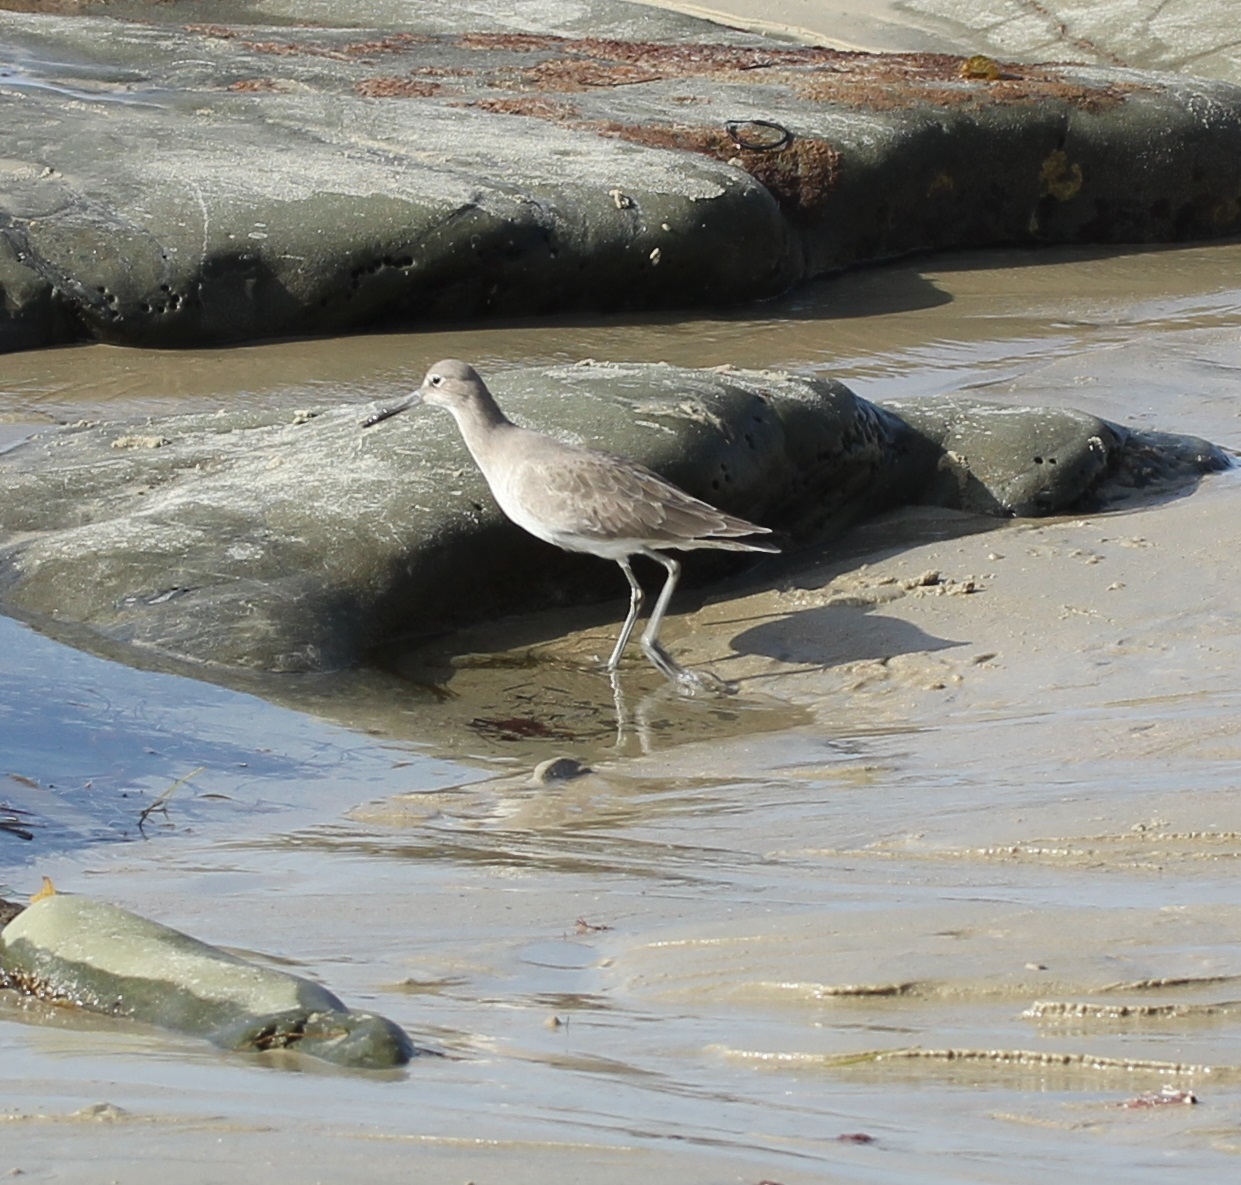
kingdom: Animalia
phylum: Chordata
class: Aves
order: Charadriiformes
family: Scolopacidae
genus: Tringa
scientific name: Tringa semipalmata
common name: Willet
